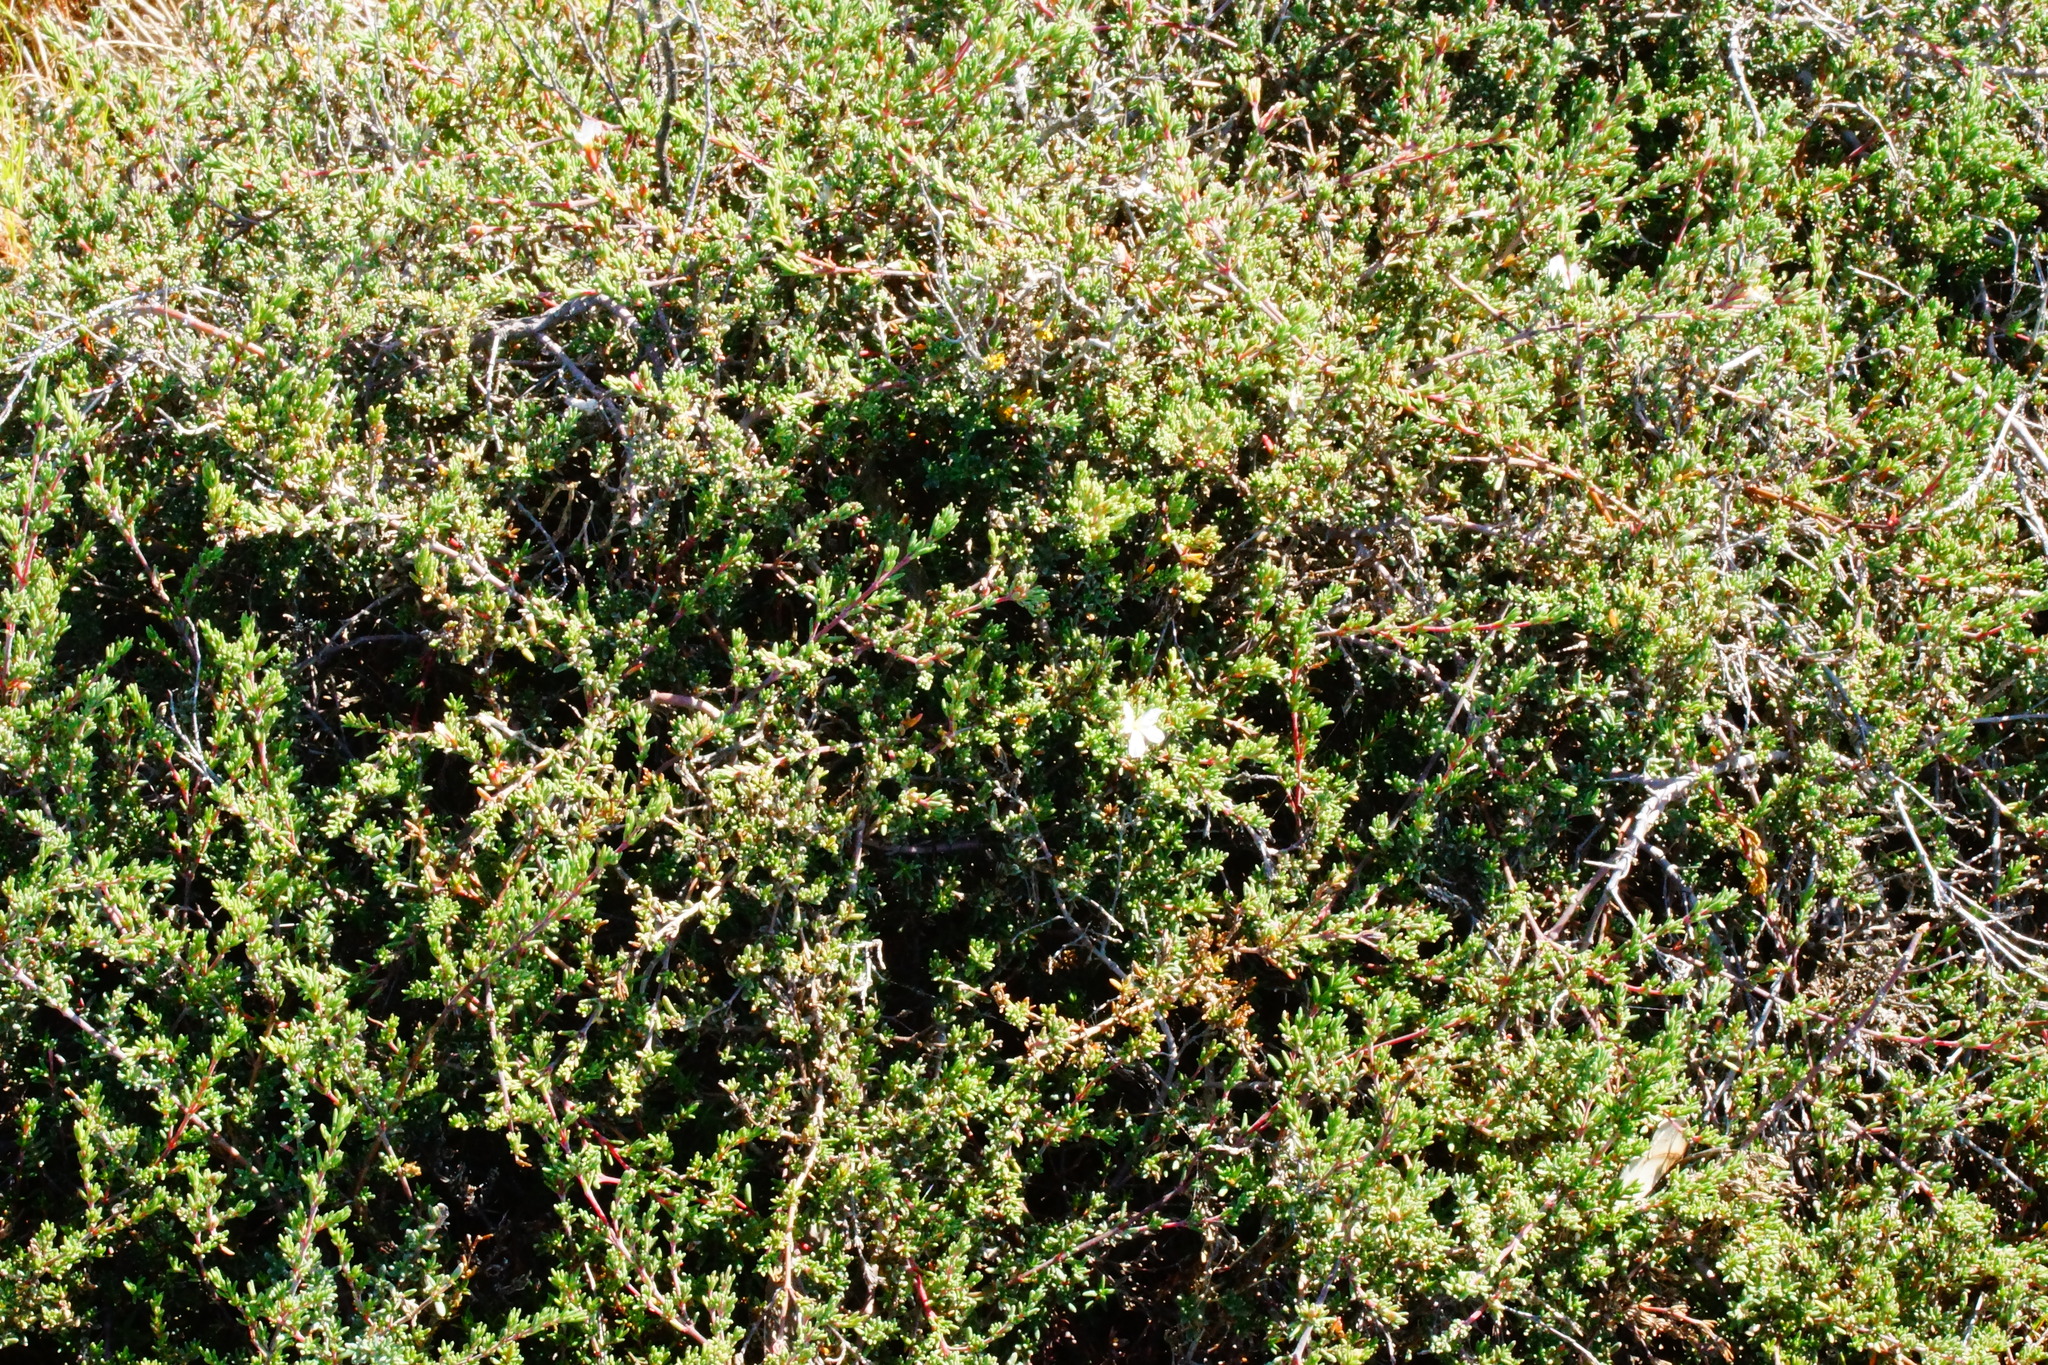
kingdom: Plantae
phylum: Tracheophyta
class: Magnoliopsida
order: Caryophyllales
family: Frankeniaceae
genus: Frankenia
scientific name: Frankenia pauciflora
